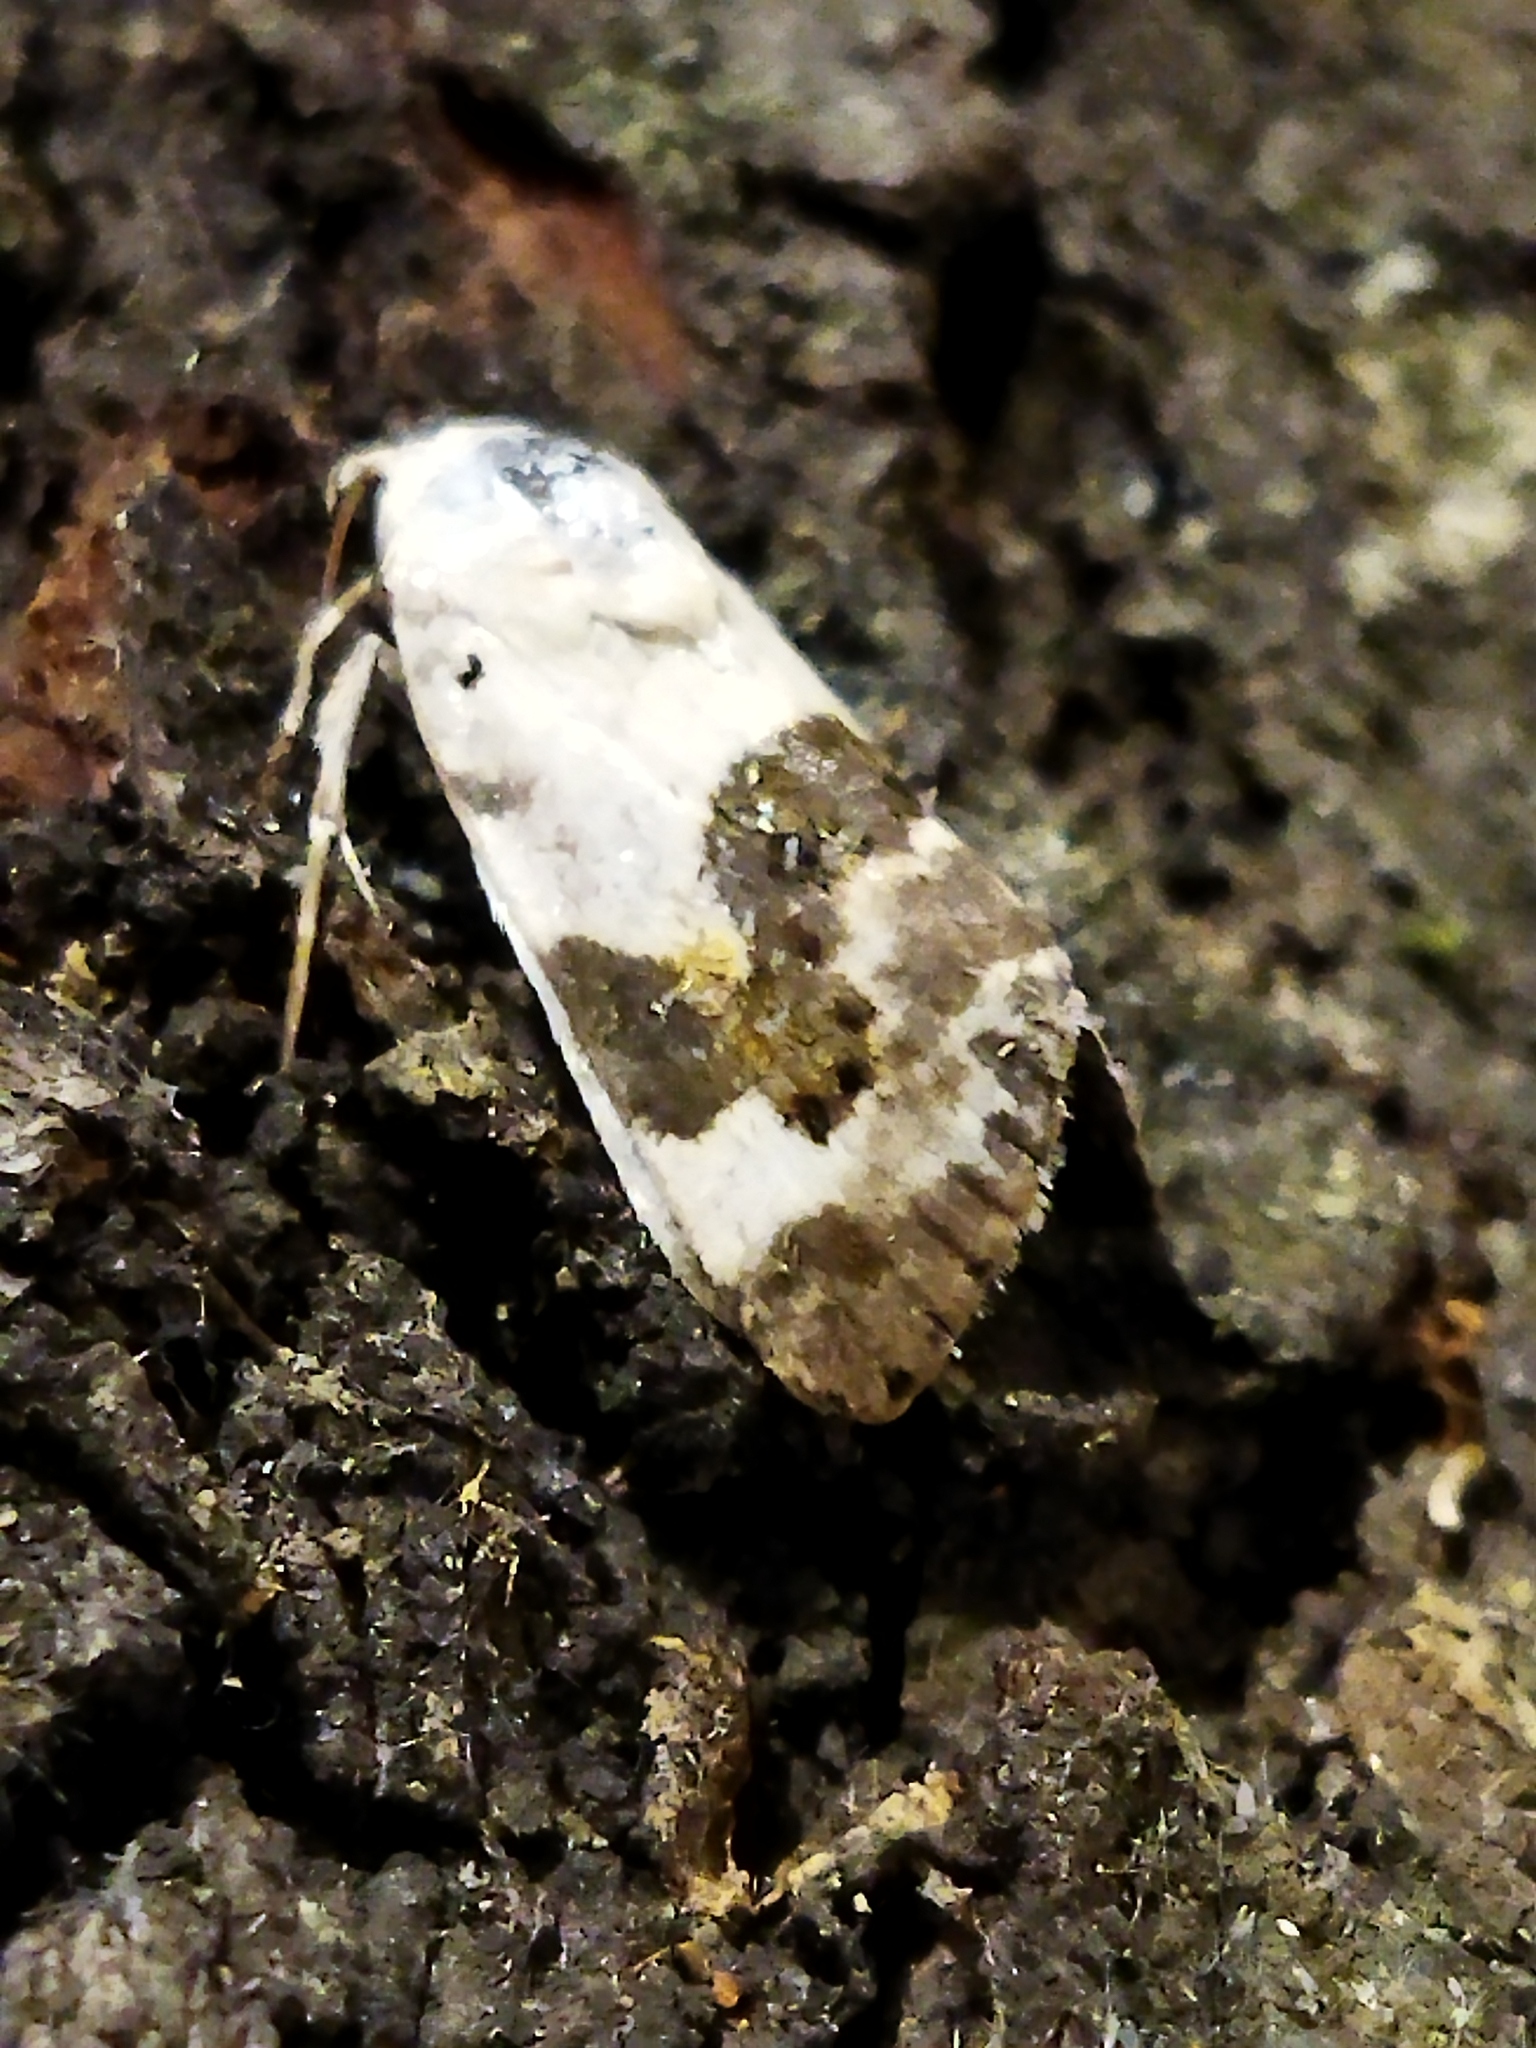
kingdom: Animalia
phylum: Arthropoda
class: Insecta
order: Lepidoptera
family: Noctuidae
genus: Acontia
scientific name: Acontia lucida
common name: Pale shoulder
